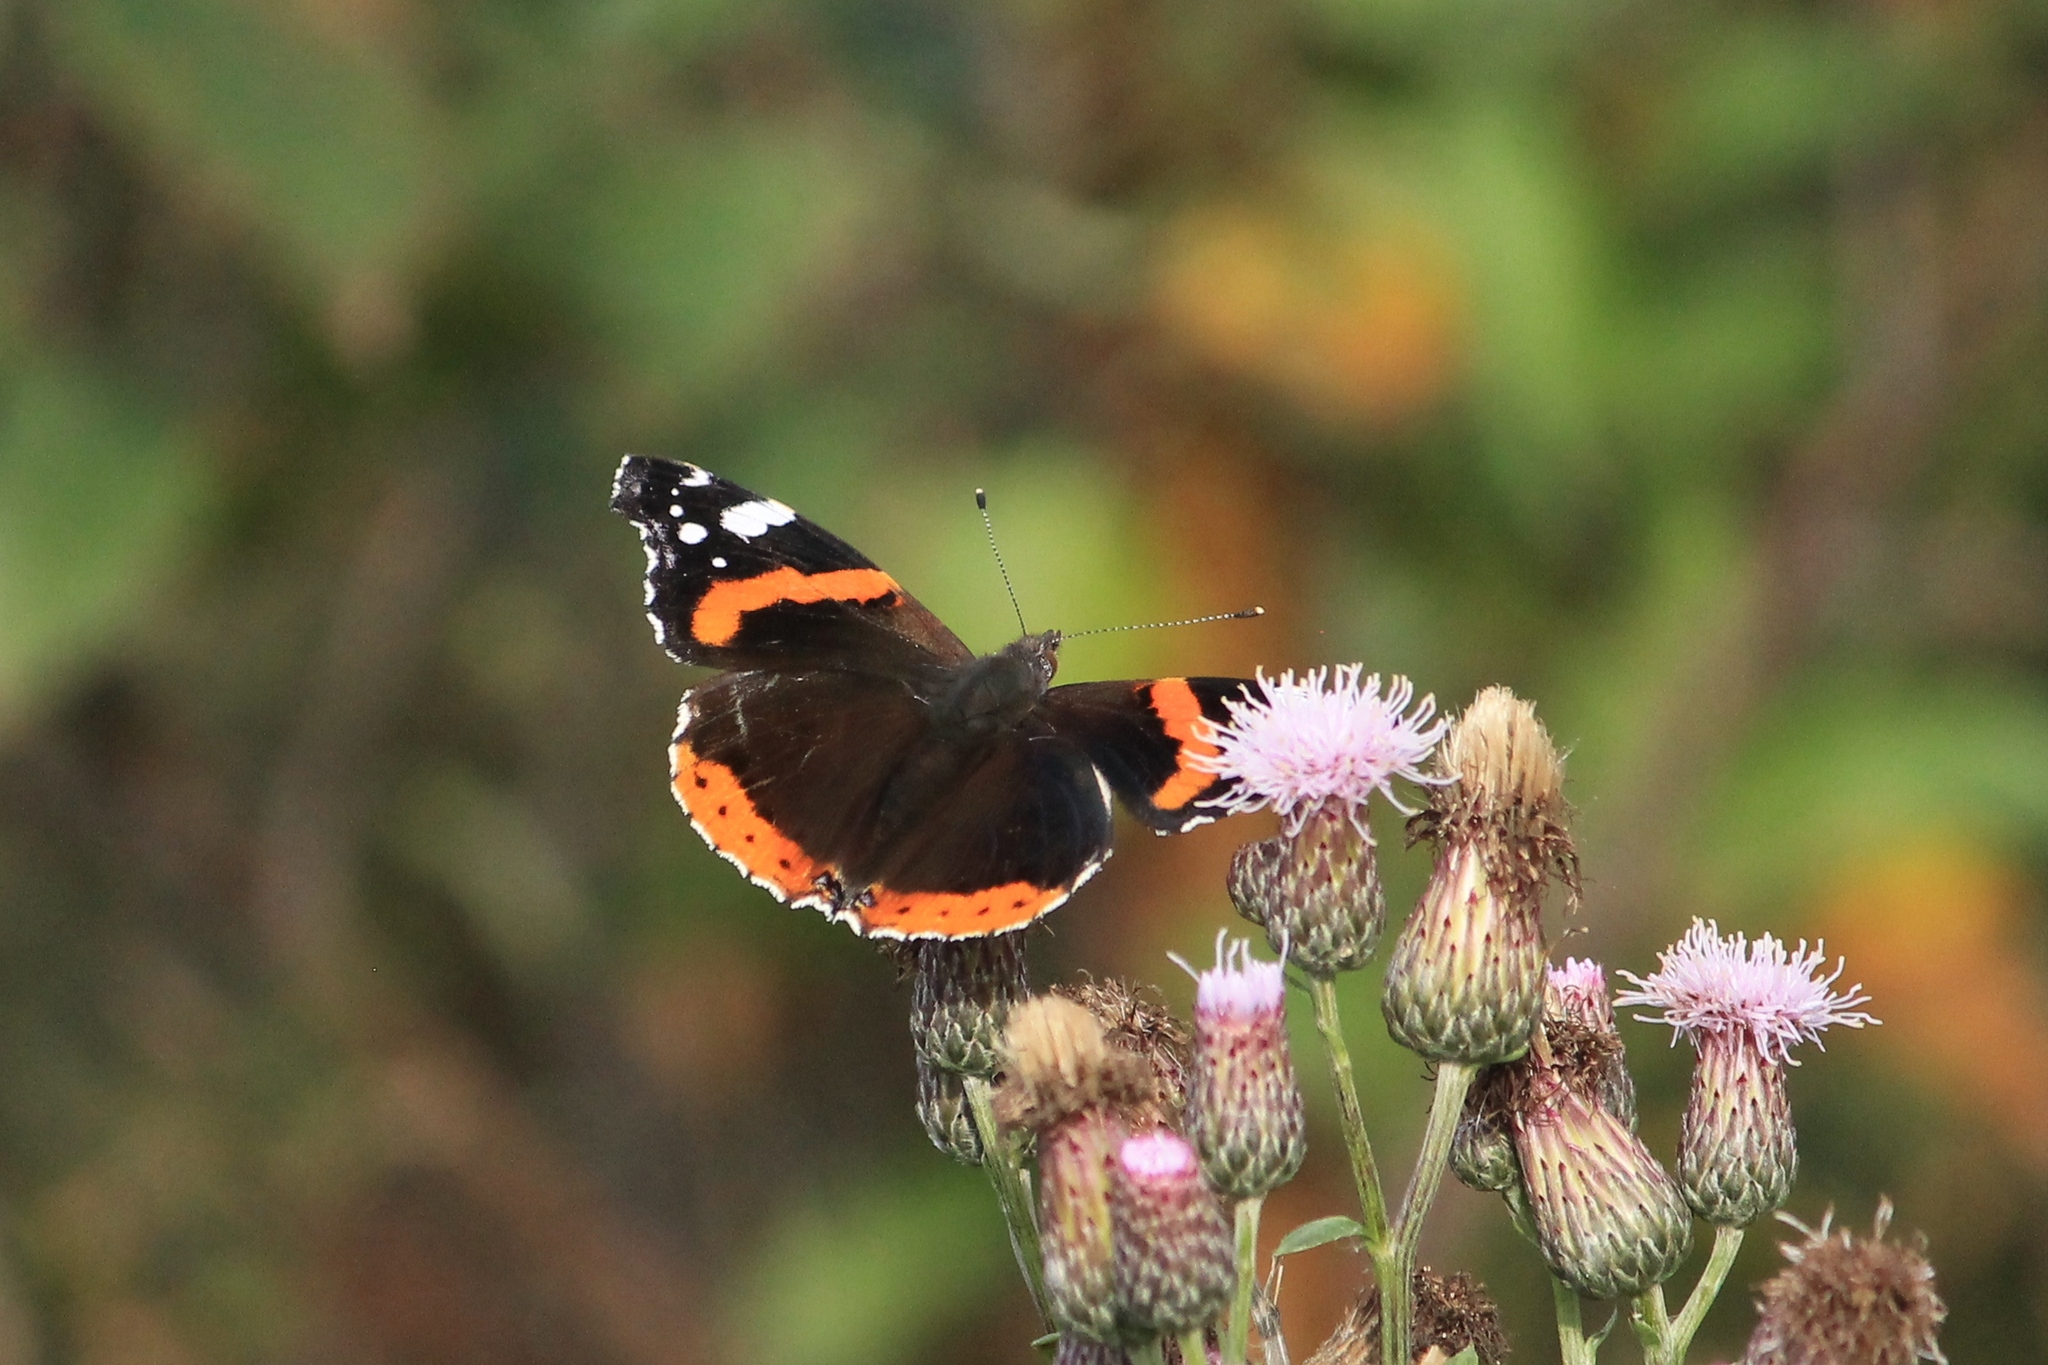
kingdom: Animalia
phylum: Arthropoda
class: Insecta
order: Lepidoptera
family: Nymphalidae
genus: Vanessa
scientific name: Vanessa atalanta
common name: Red admiral
